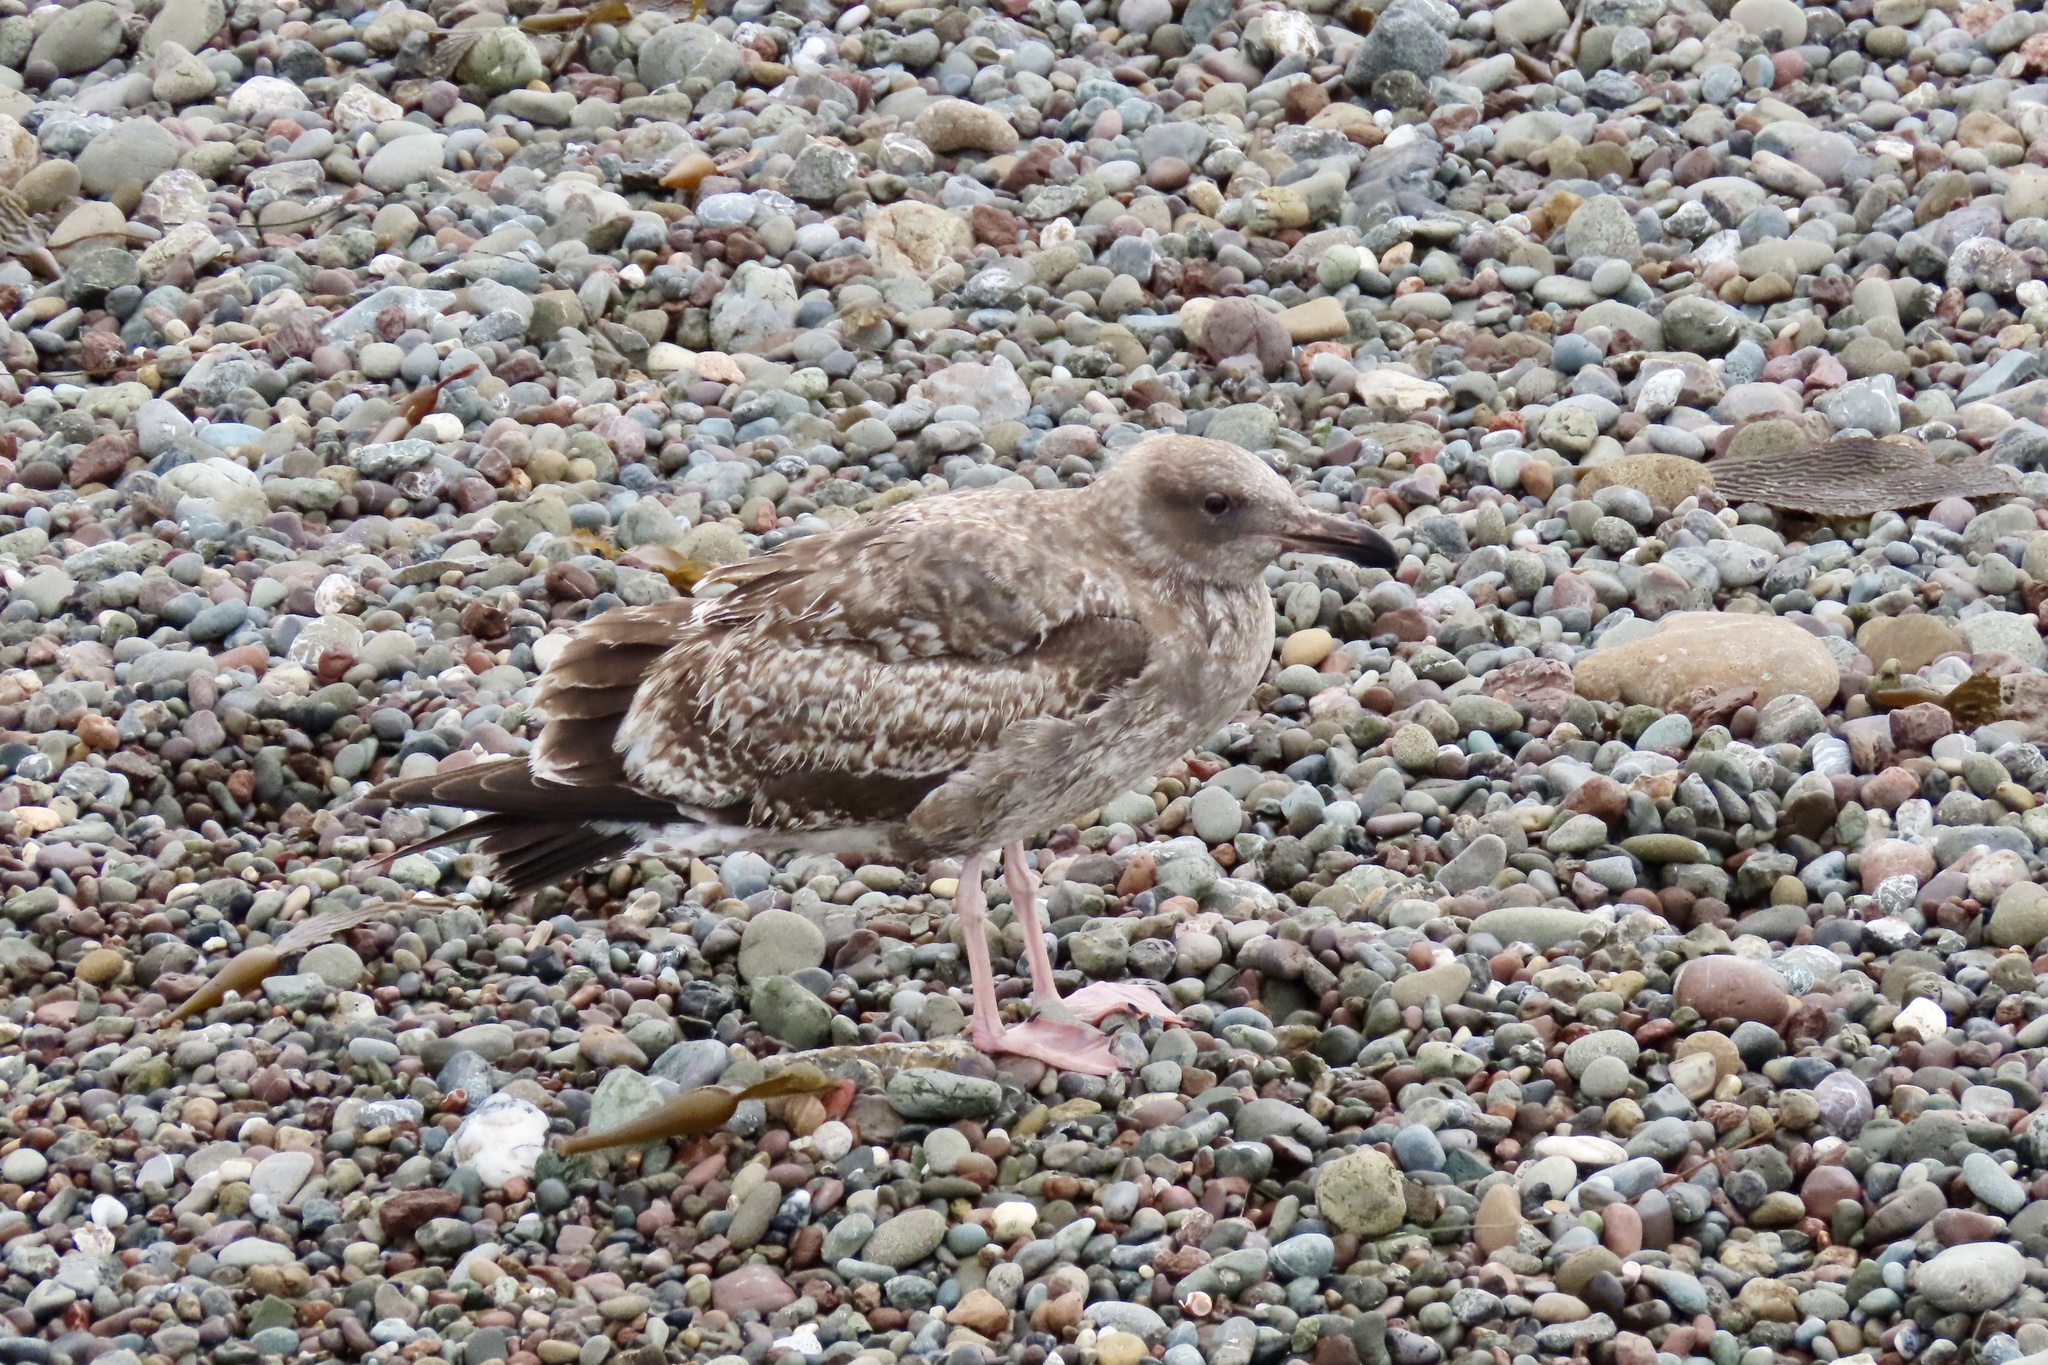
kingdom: Animalia
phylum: Chordata
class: Aves
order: Charadriiformes
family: Laridae
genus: Larus
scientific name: Larus occidentalis
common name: Western gull
